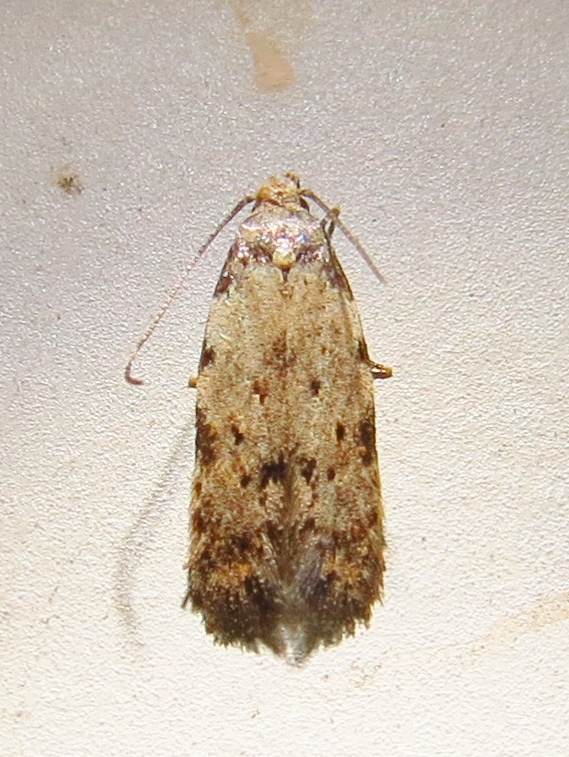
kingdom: Animalia
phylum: Arthropoda
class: Insecta
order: Lepidoptera
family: Autostichidae
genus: Taygete
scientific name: Taygete attributella
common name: Triangle-marked twirler moth
